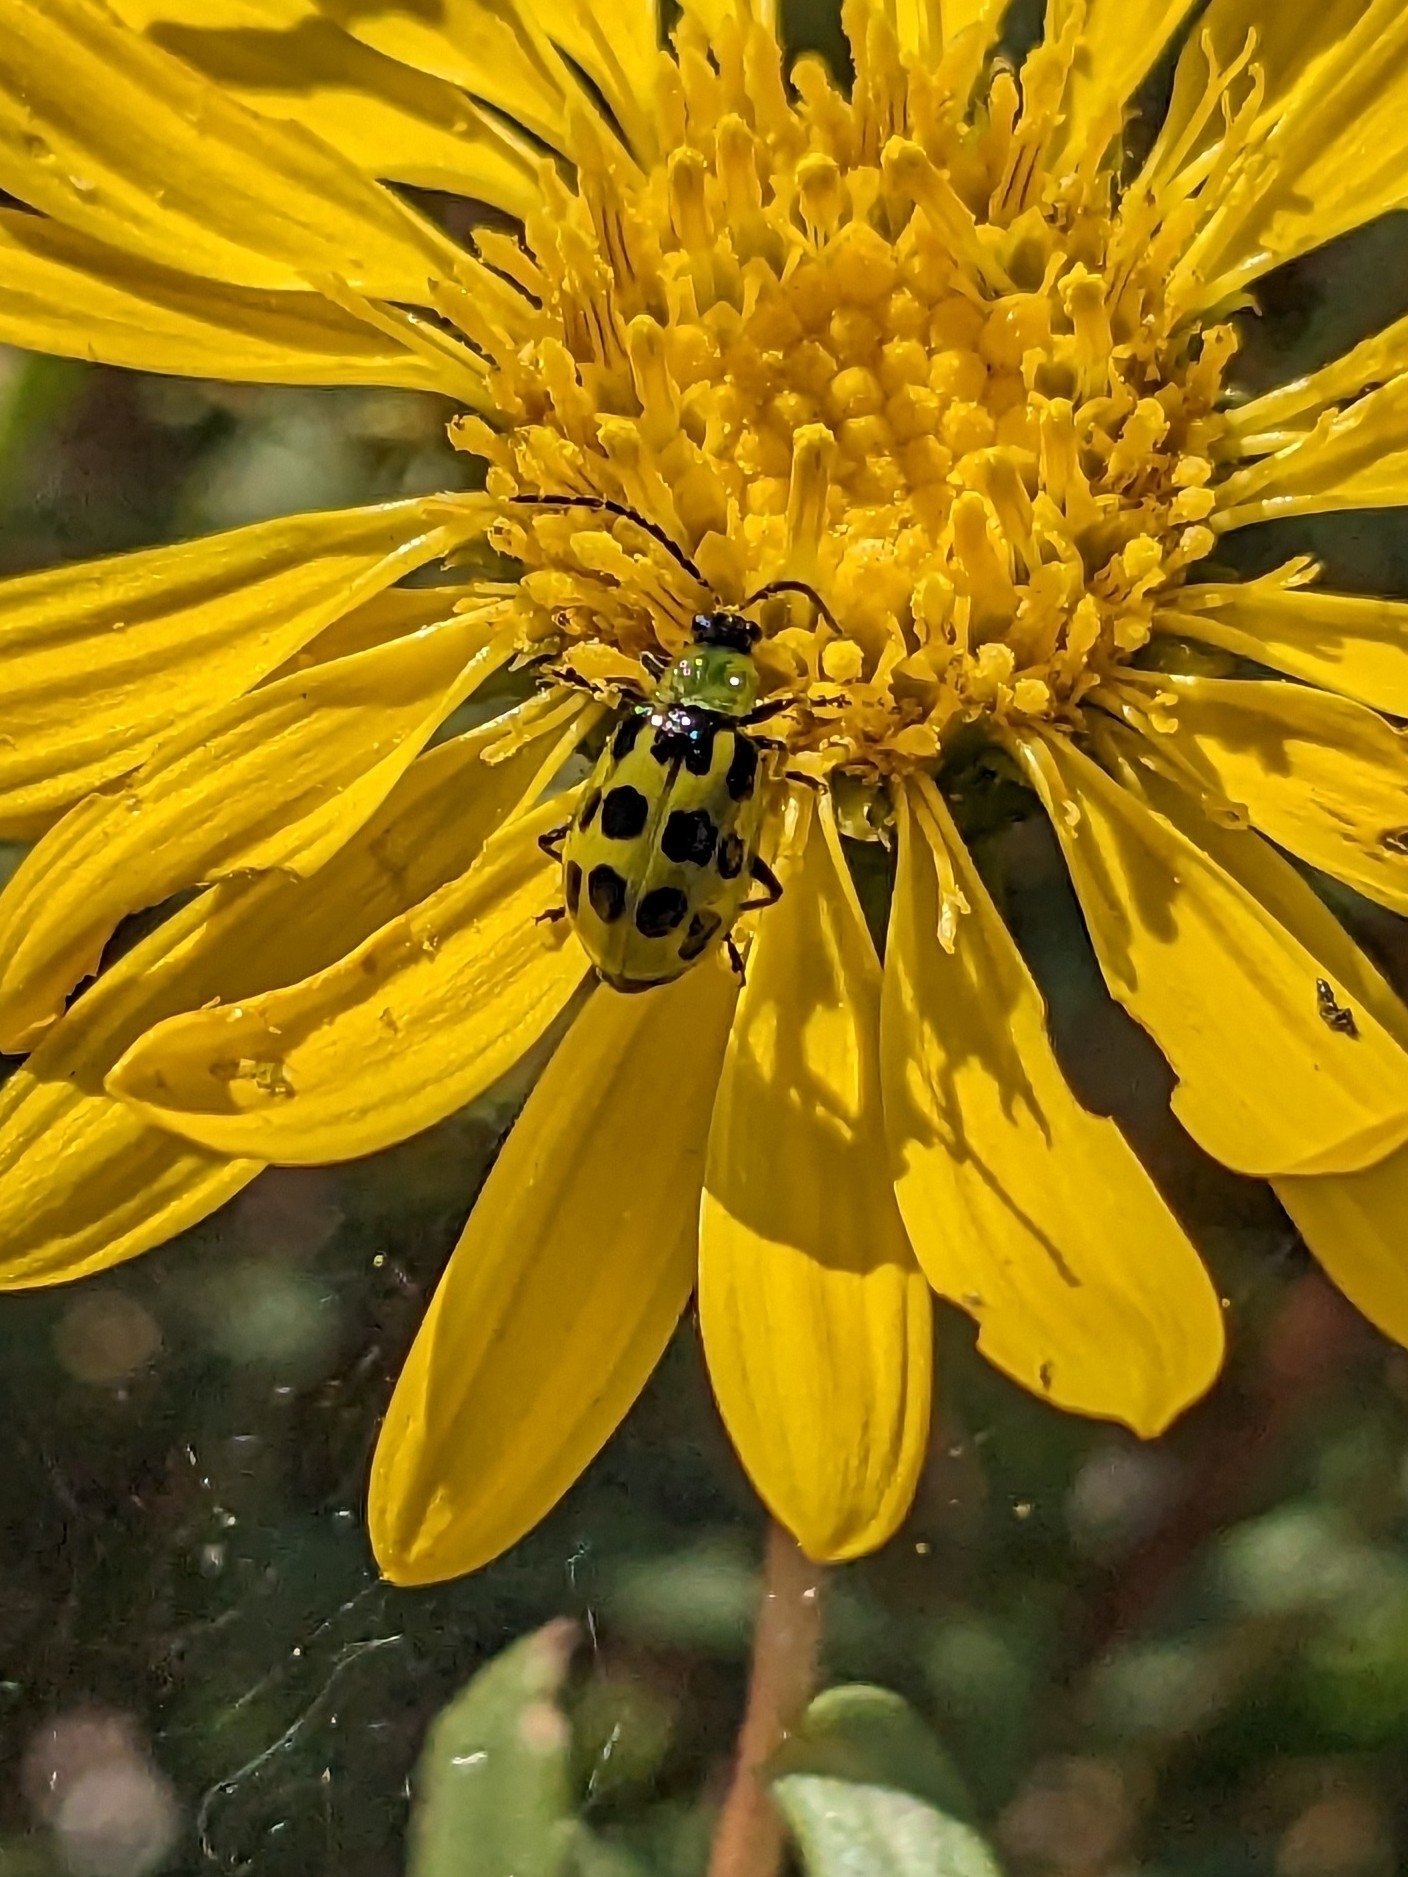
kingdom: Animalia
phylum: Arthropoda
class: Insecta
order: Coleoptera
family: Chrysomelidae
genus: Diabrotica
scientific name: Diabrotica undecimpunctata
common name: Spotted cucumber beetle
